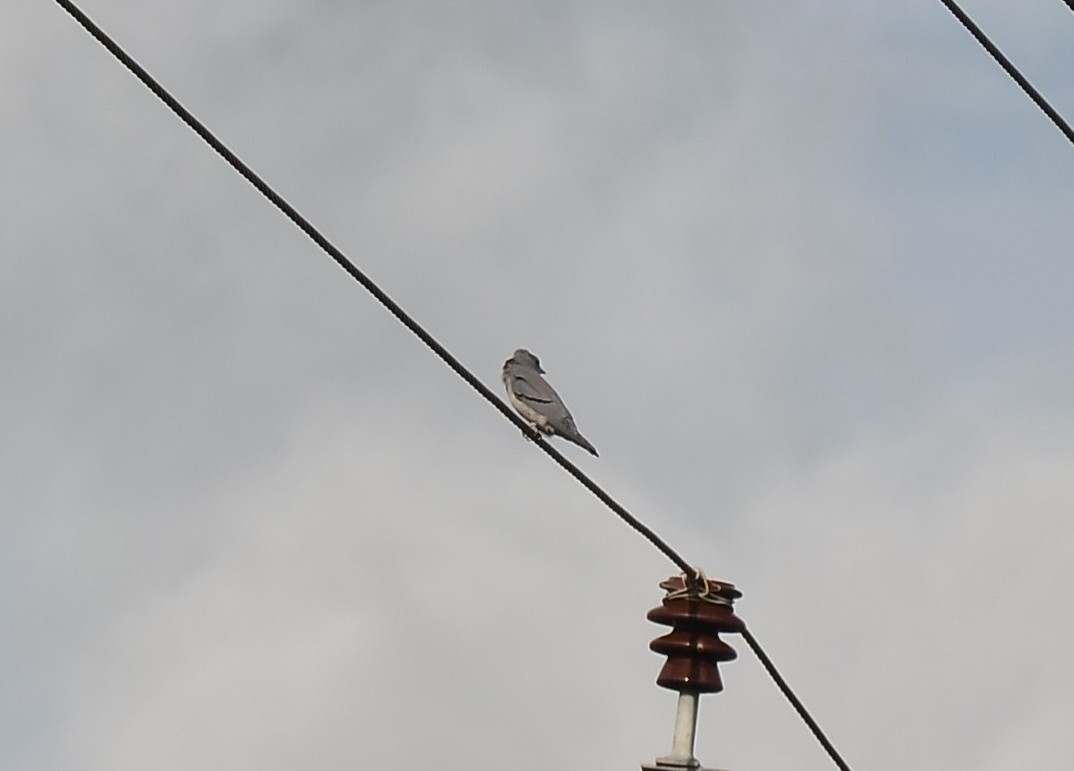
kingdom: Animalia
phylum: Chordata
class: Aves
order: Passeriformes
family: Artamidae
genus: Artamus
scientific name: Artamus fuscus
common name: Ashy woodswallow
